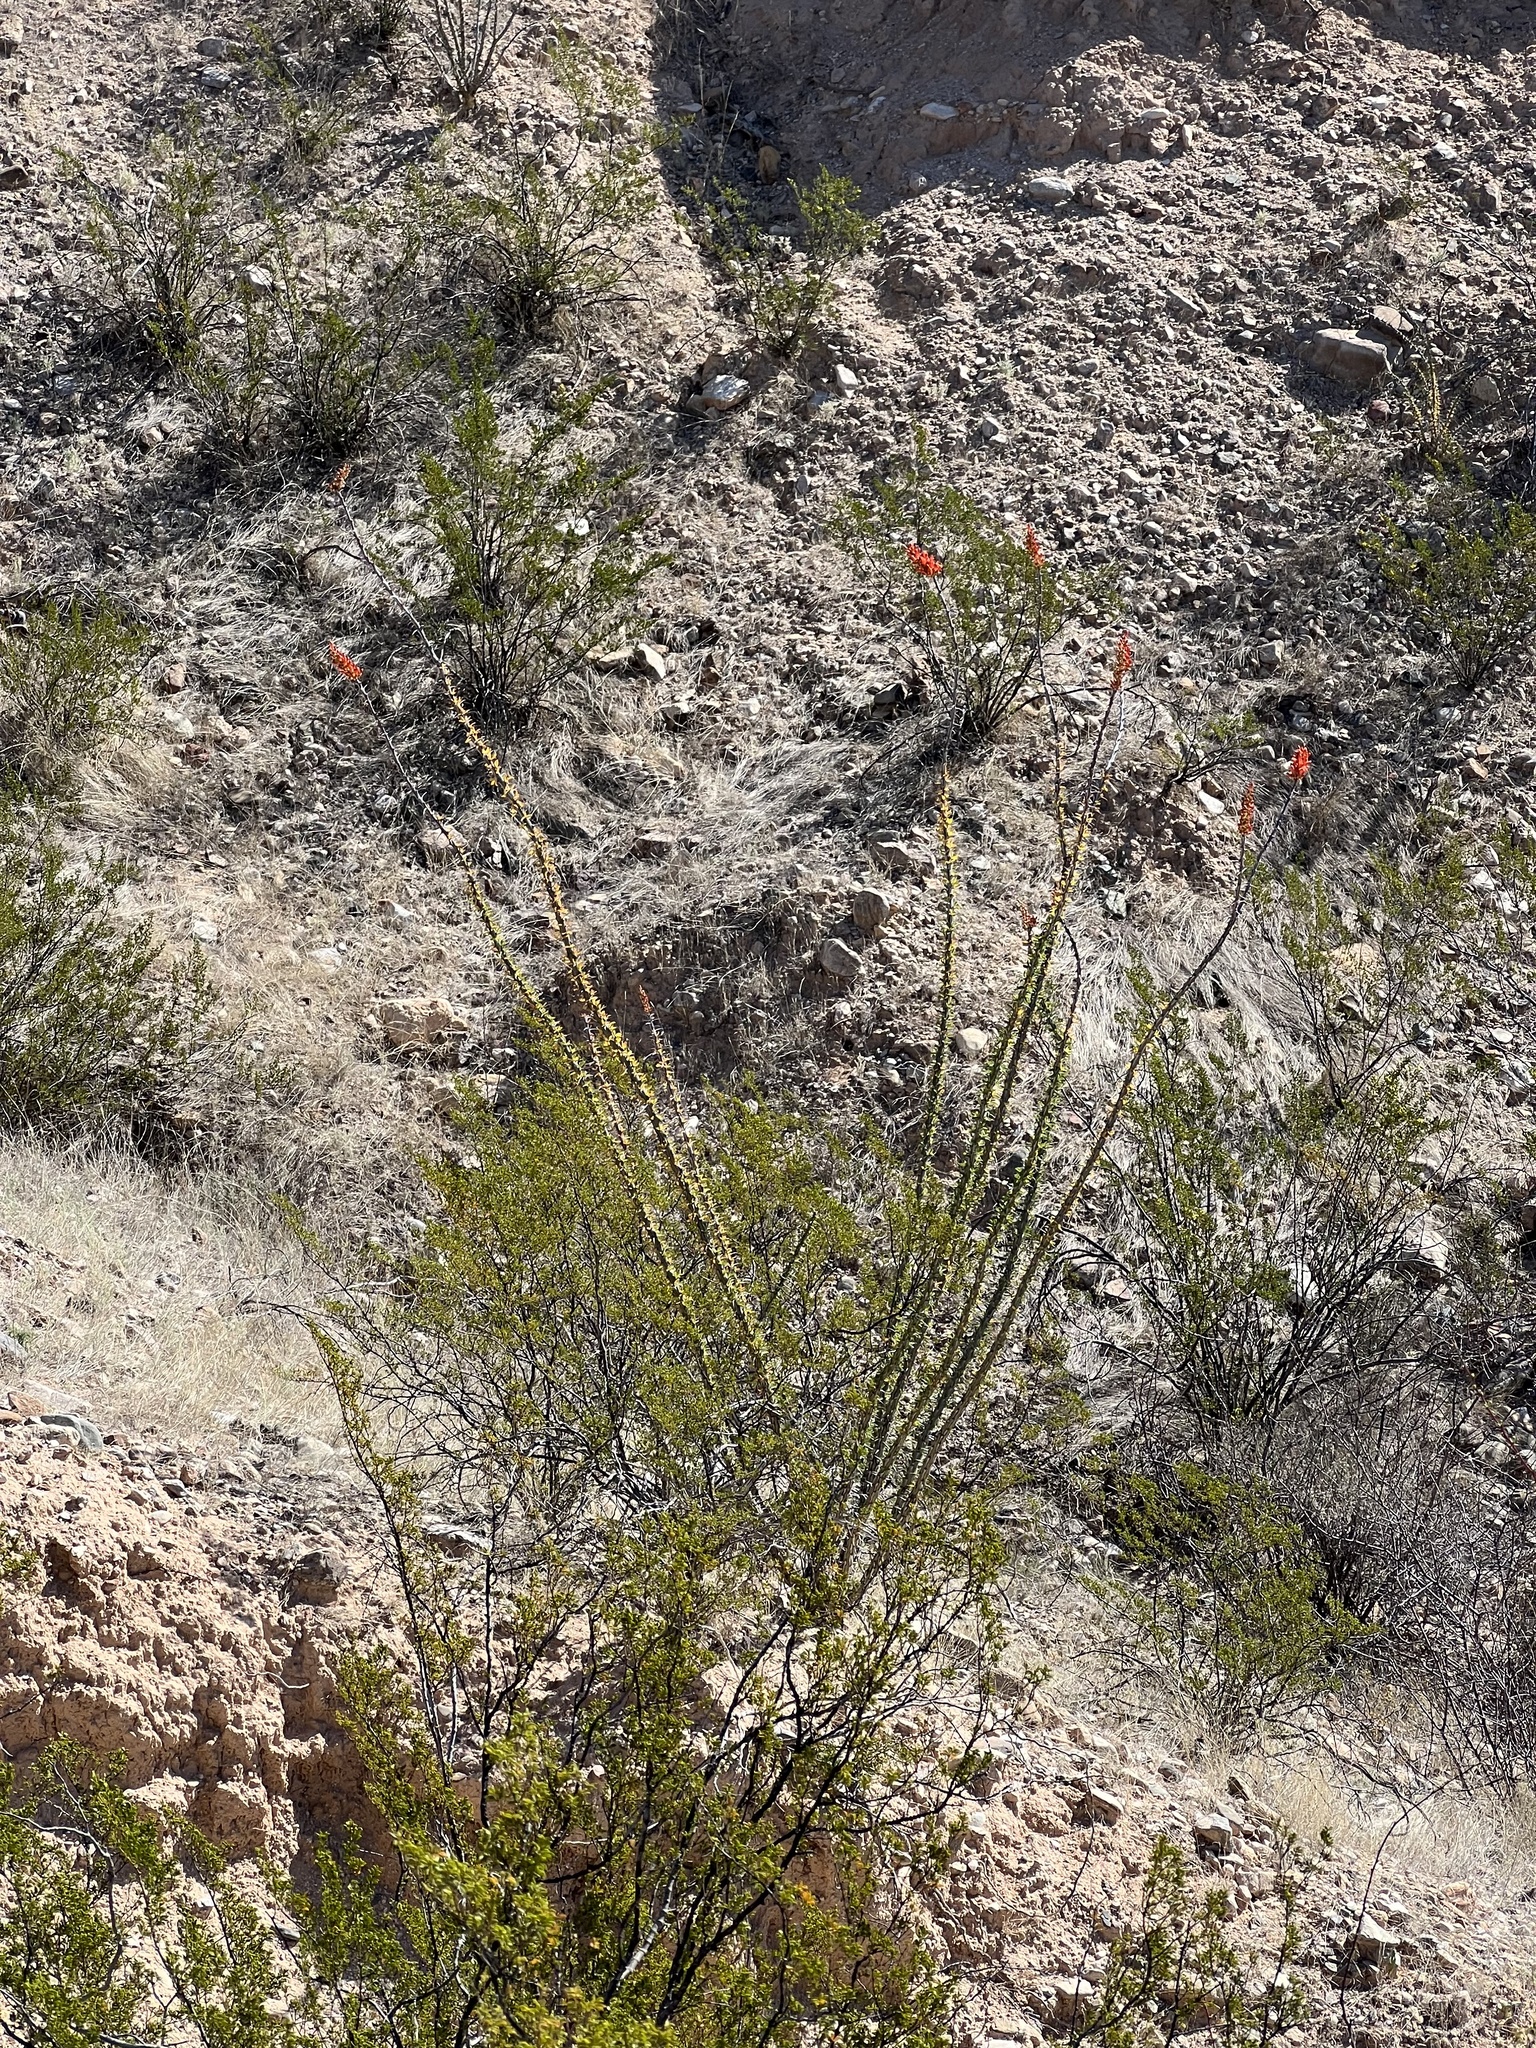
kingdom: Plantae
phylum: Tracheophyta
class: Magnoliopsida
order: Ericales
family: Fouquieriaceae
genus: Fouquieria
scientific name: Fouquieria splendens
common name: Vine-cactus
